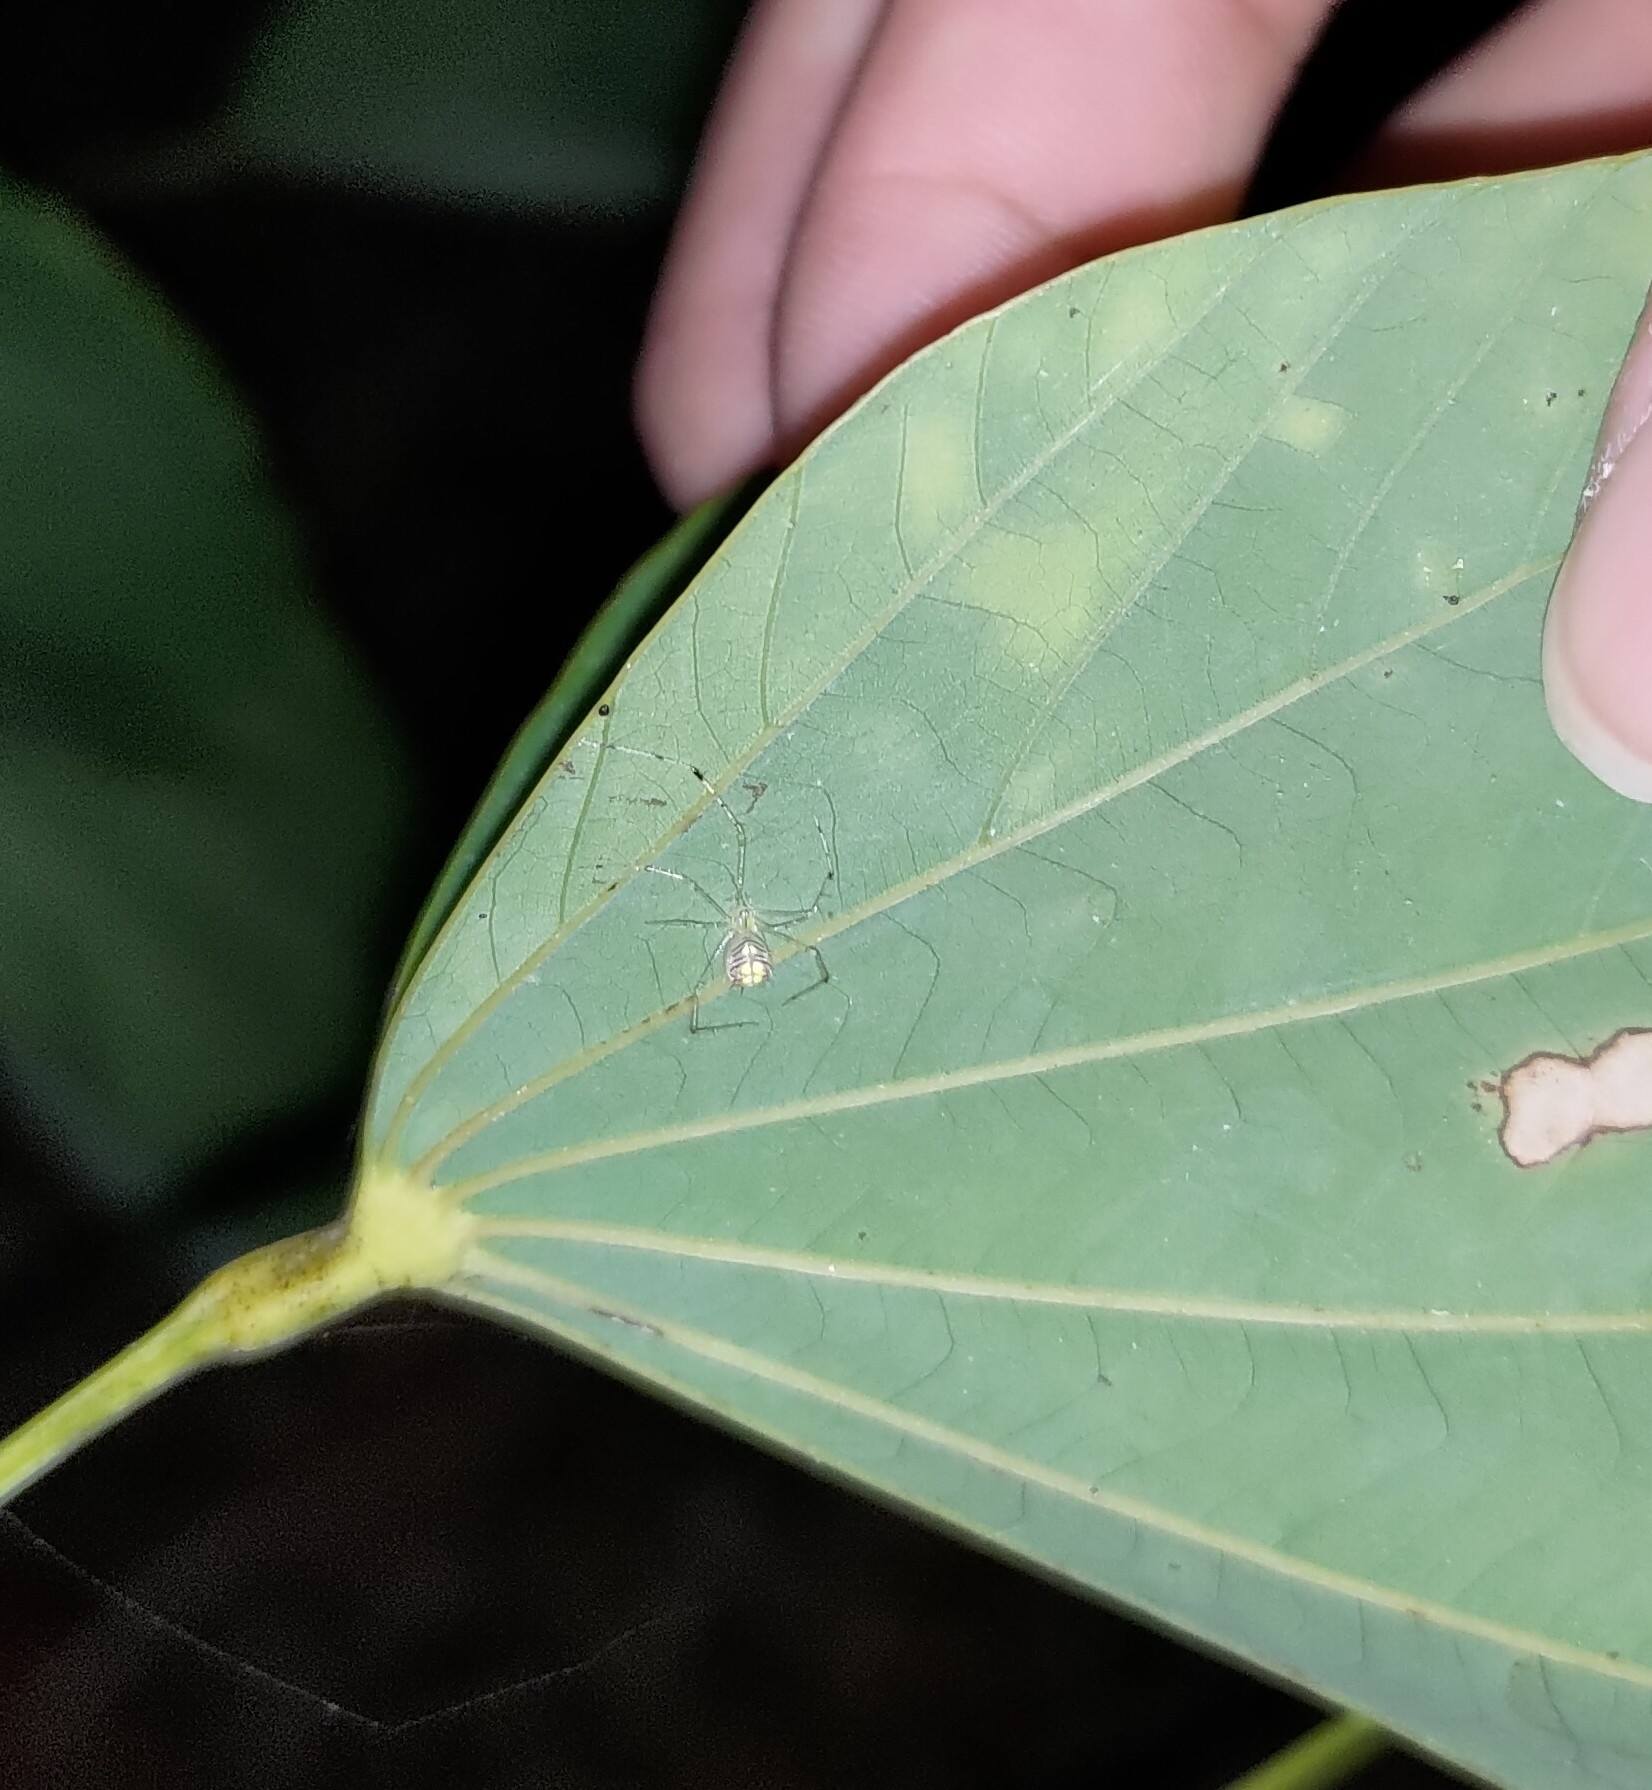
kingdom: Animalia
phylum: Arthropoda
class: Arachnida
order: Araneae
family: Theridiidae
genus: Meotipa
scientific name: Meotipa spiniventris
